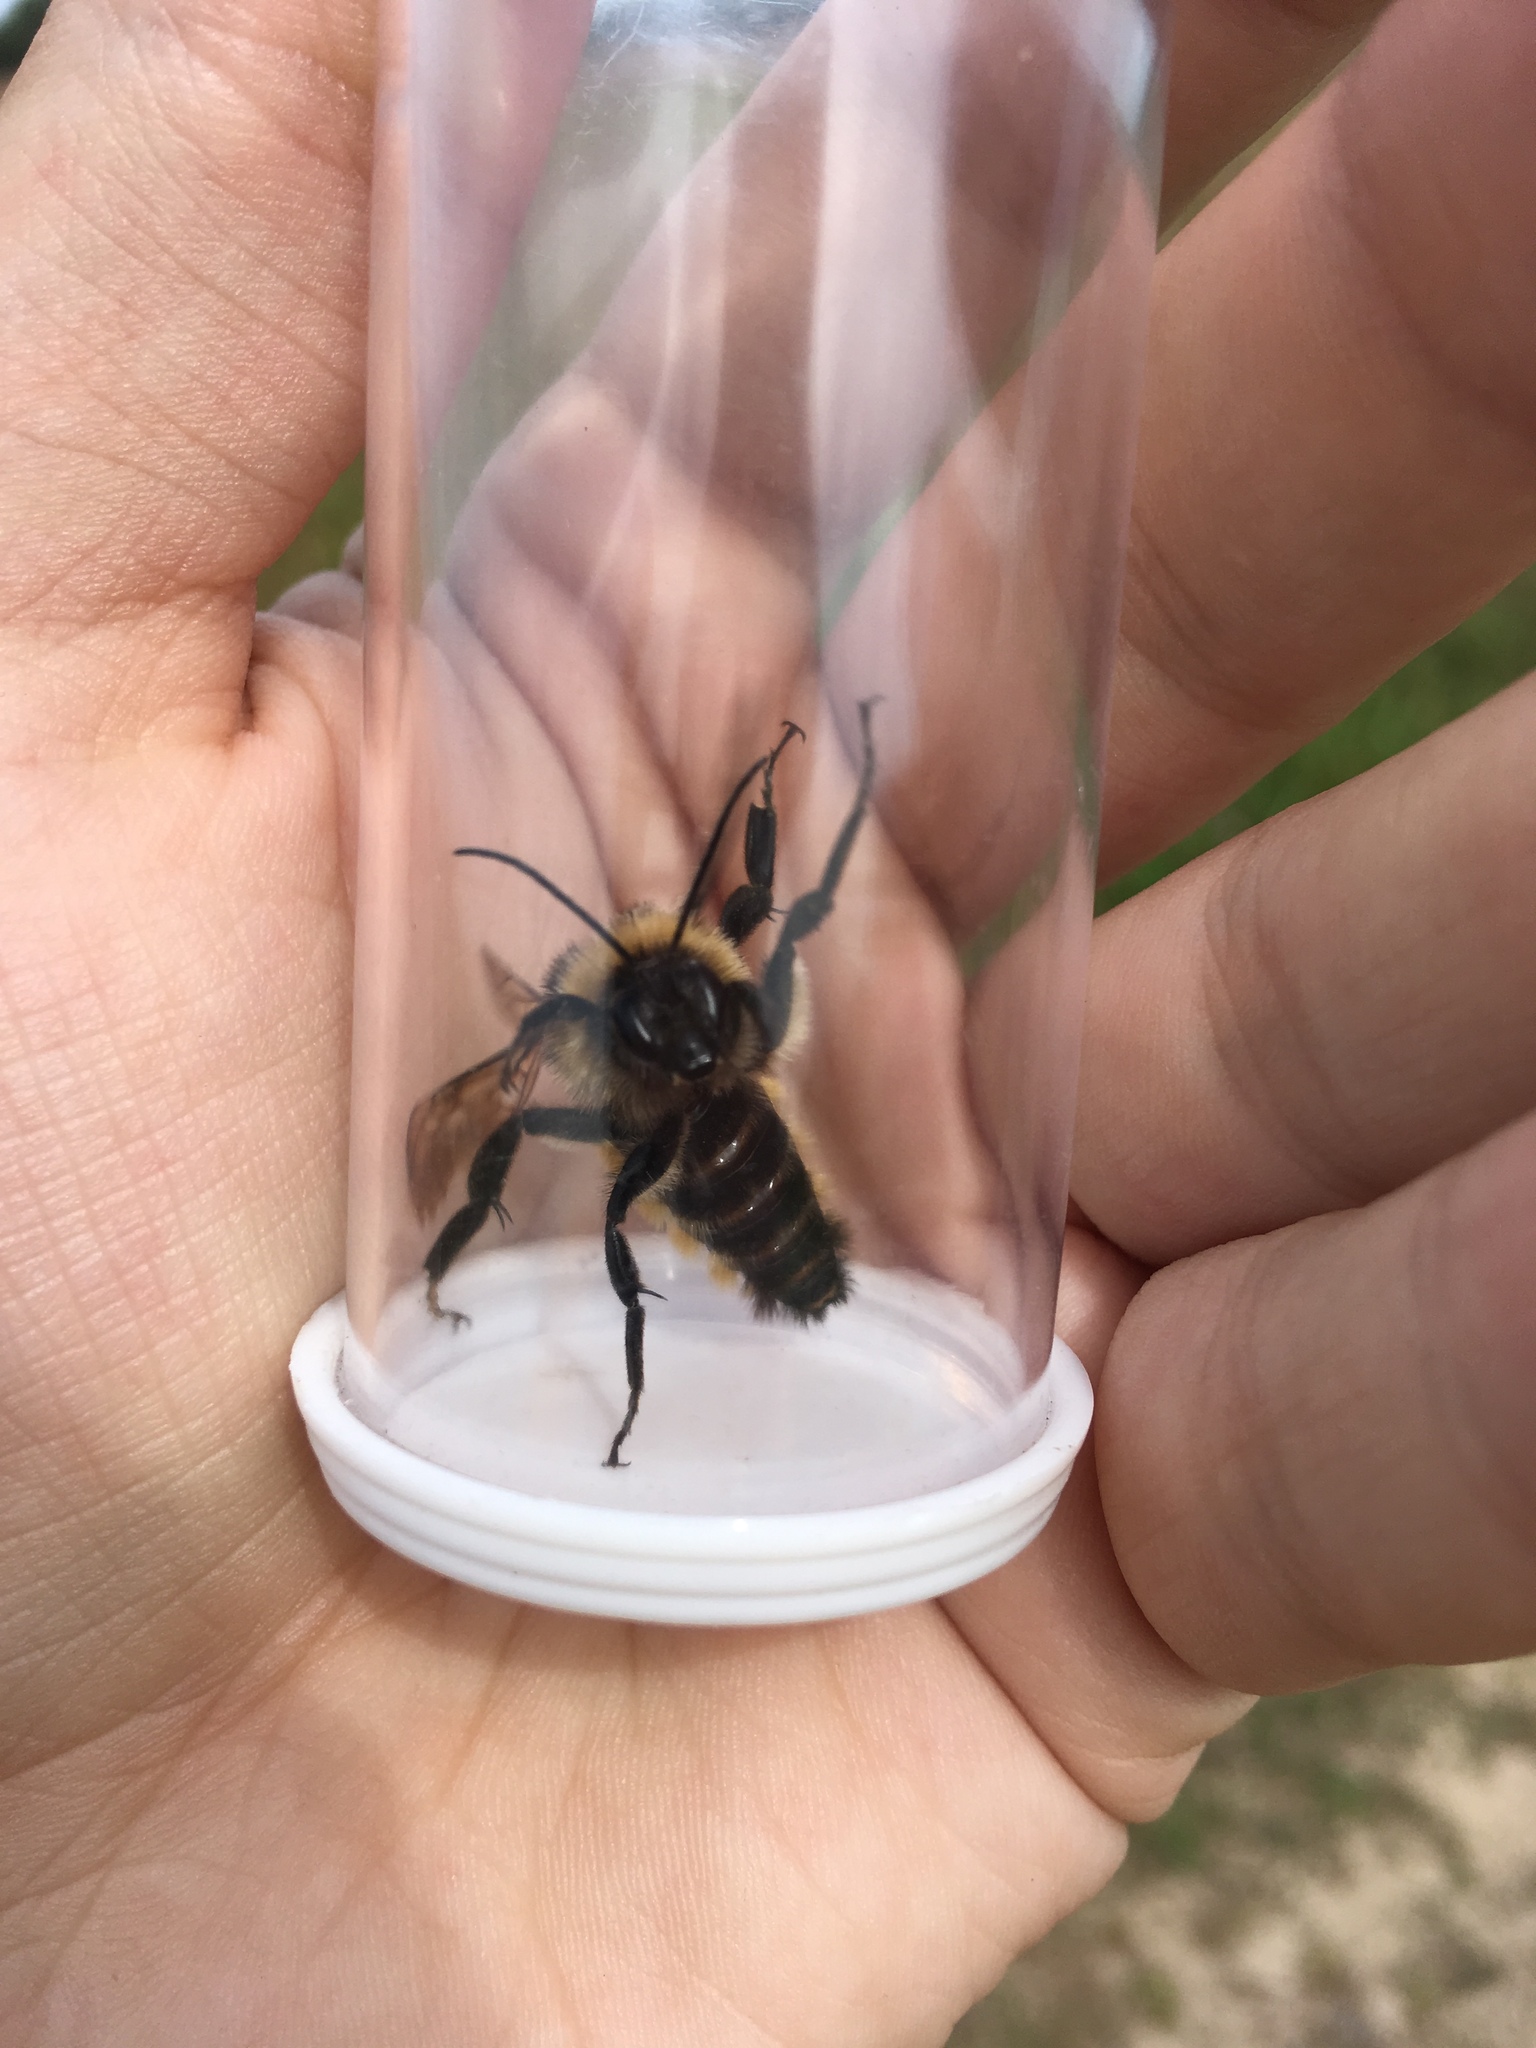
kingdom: Animalia
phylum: Arthropoda
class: Insecta
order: Hymenoptera
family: Apidae
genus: Bombus
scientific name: Bombus pensylvanicus
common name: Bumble bee
